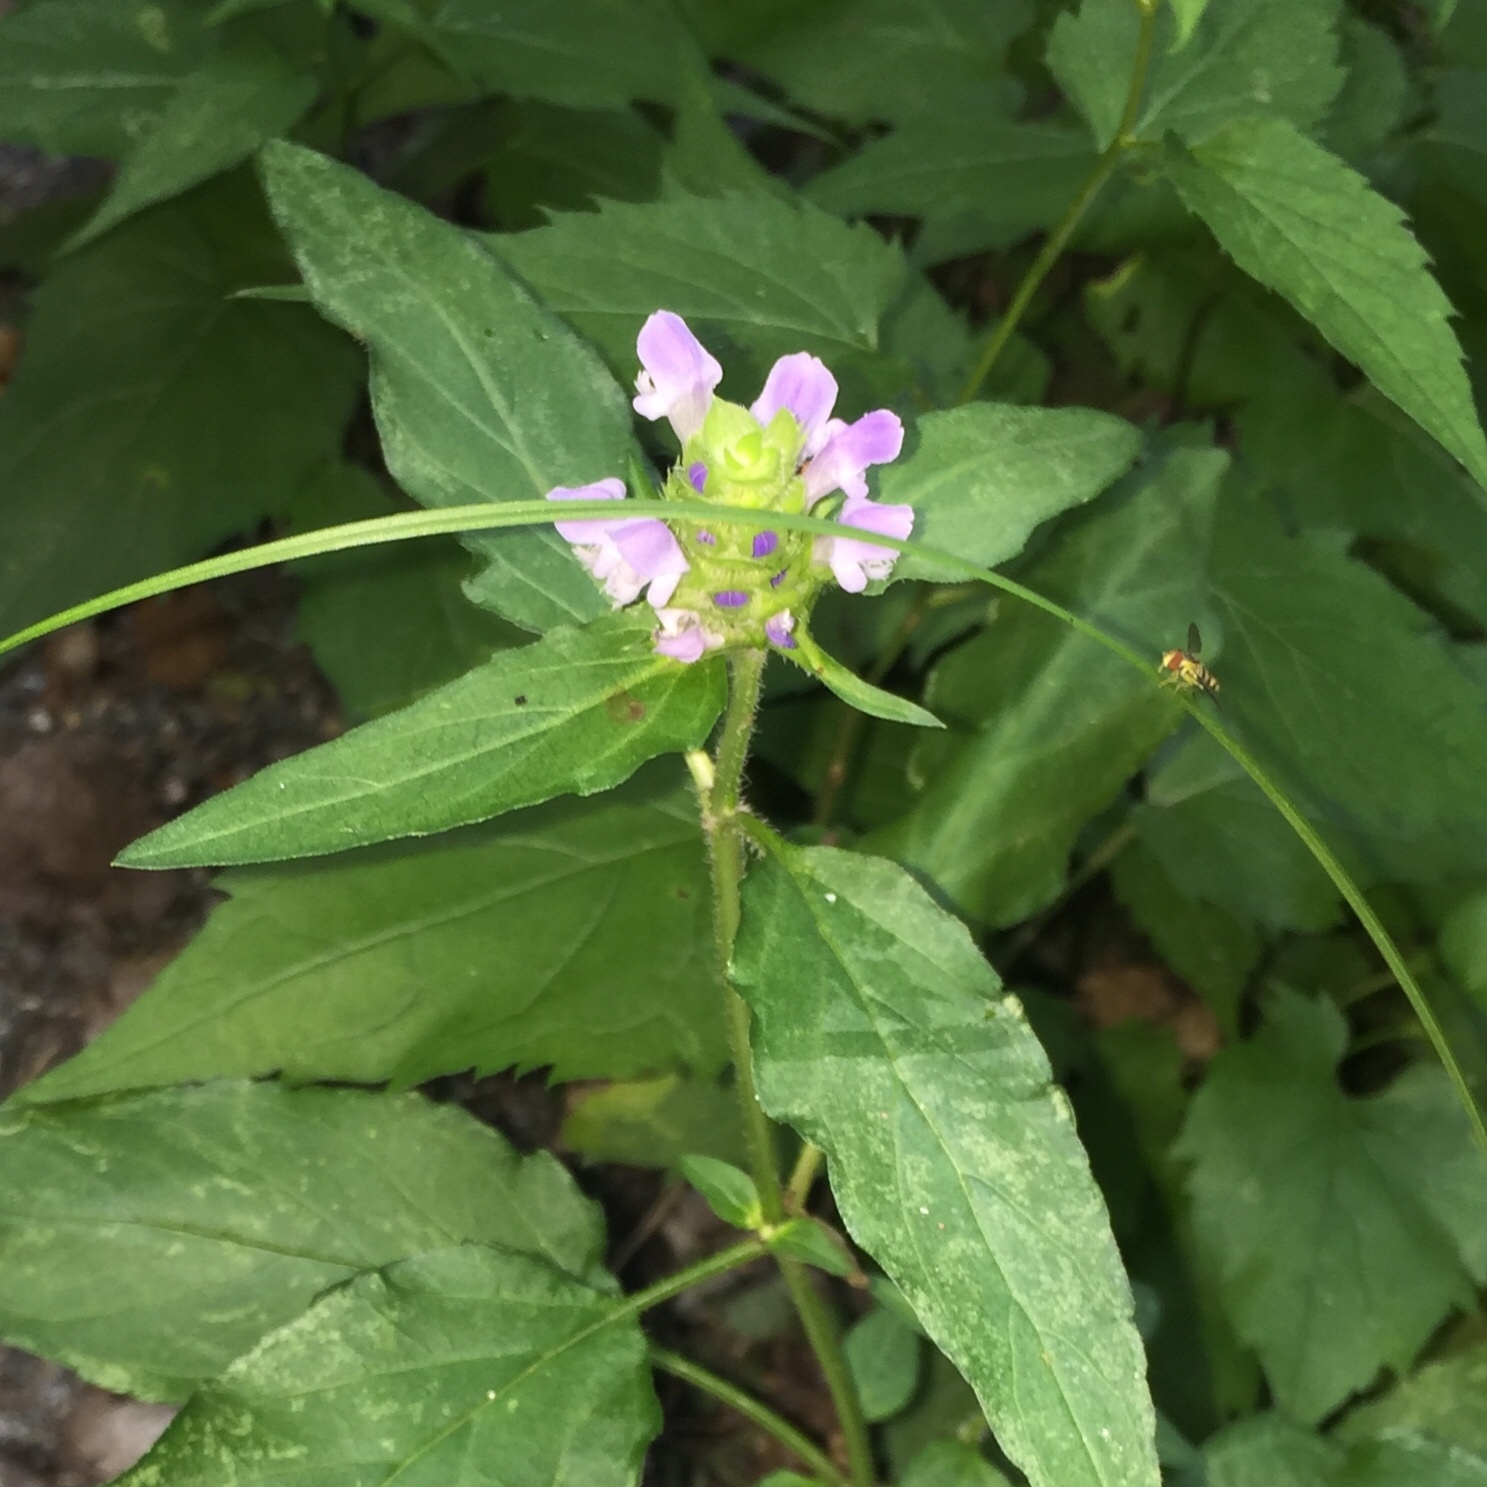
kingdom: Plantae
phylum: Tracheophyta
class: Magnoliopsida
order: Lamiales
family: Lamiaceae
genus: Prunella
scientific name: Prunella vulgaris
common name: Heal-all
